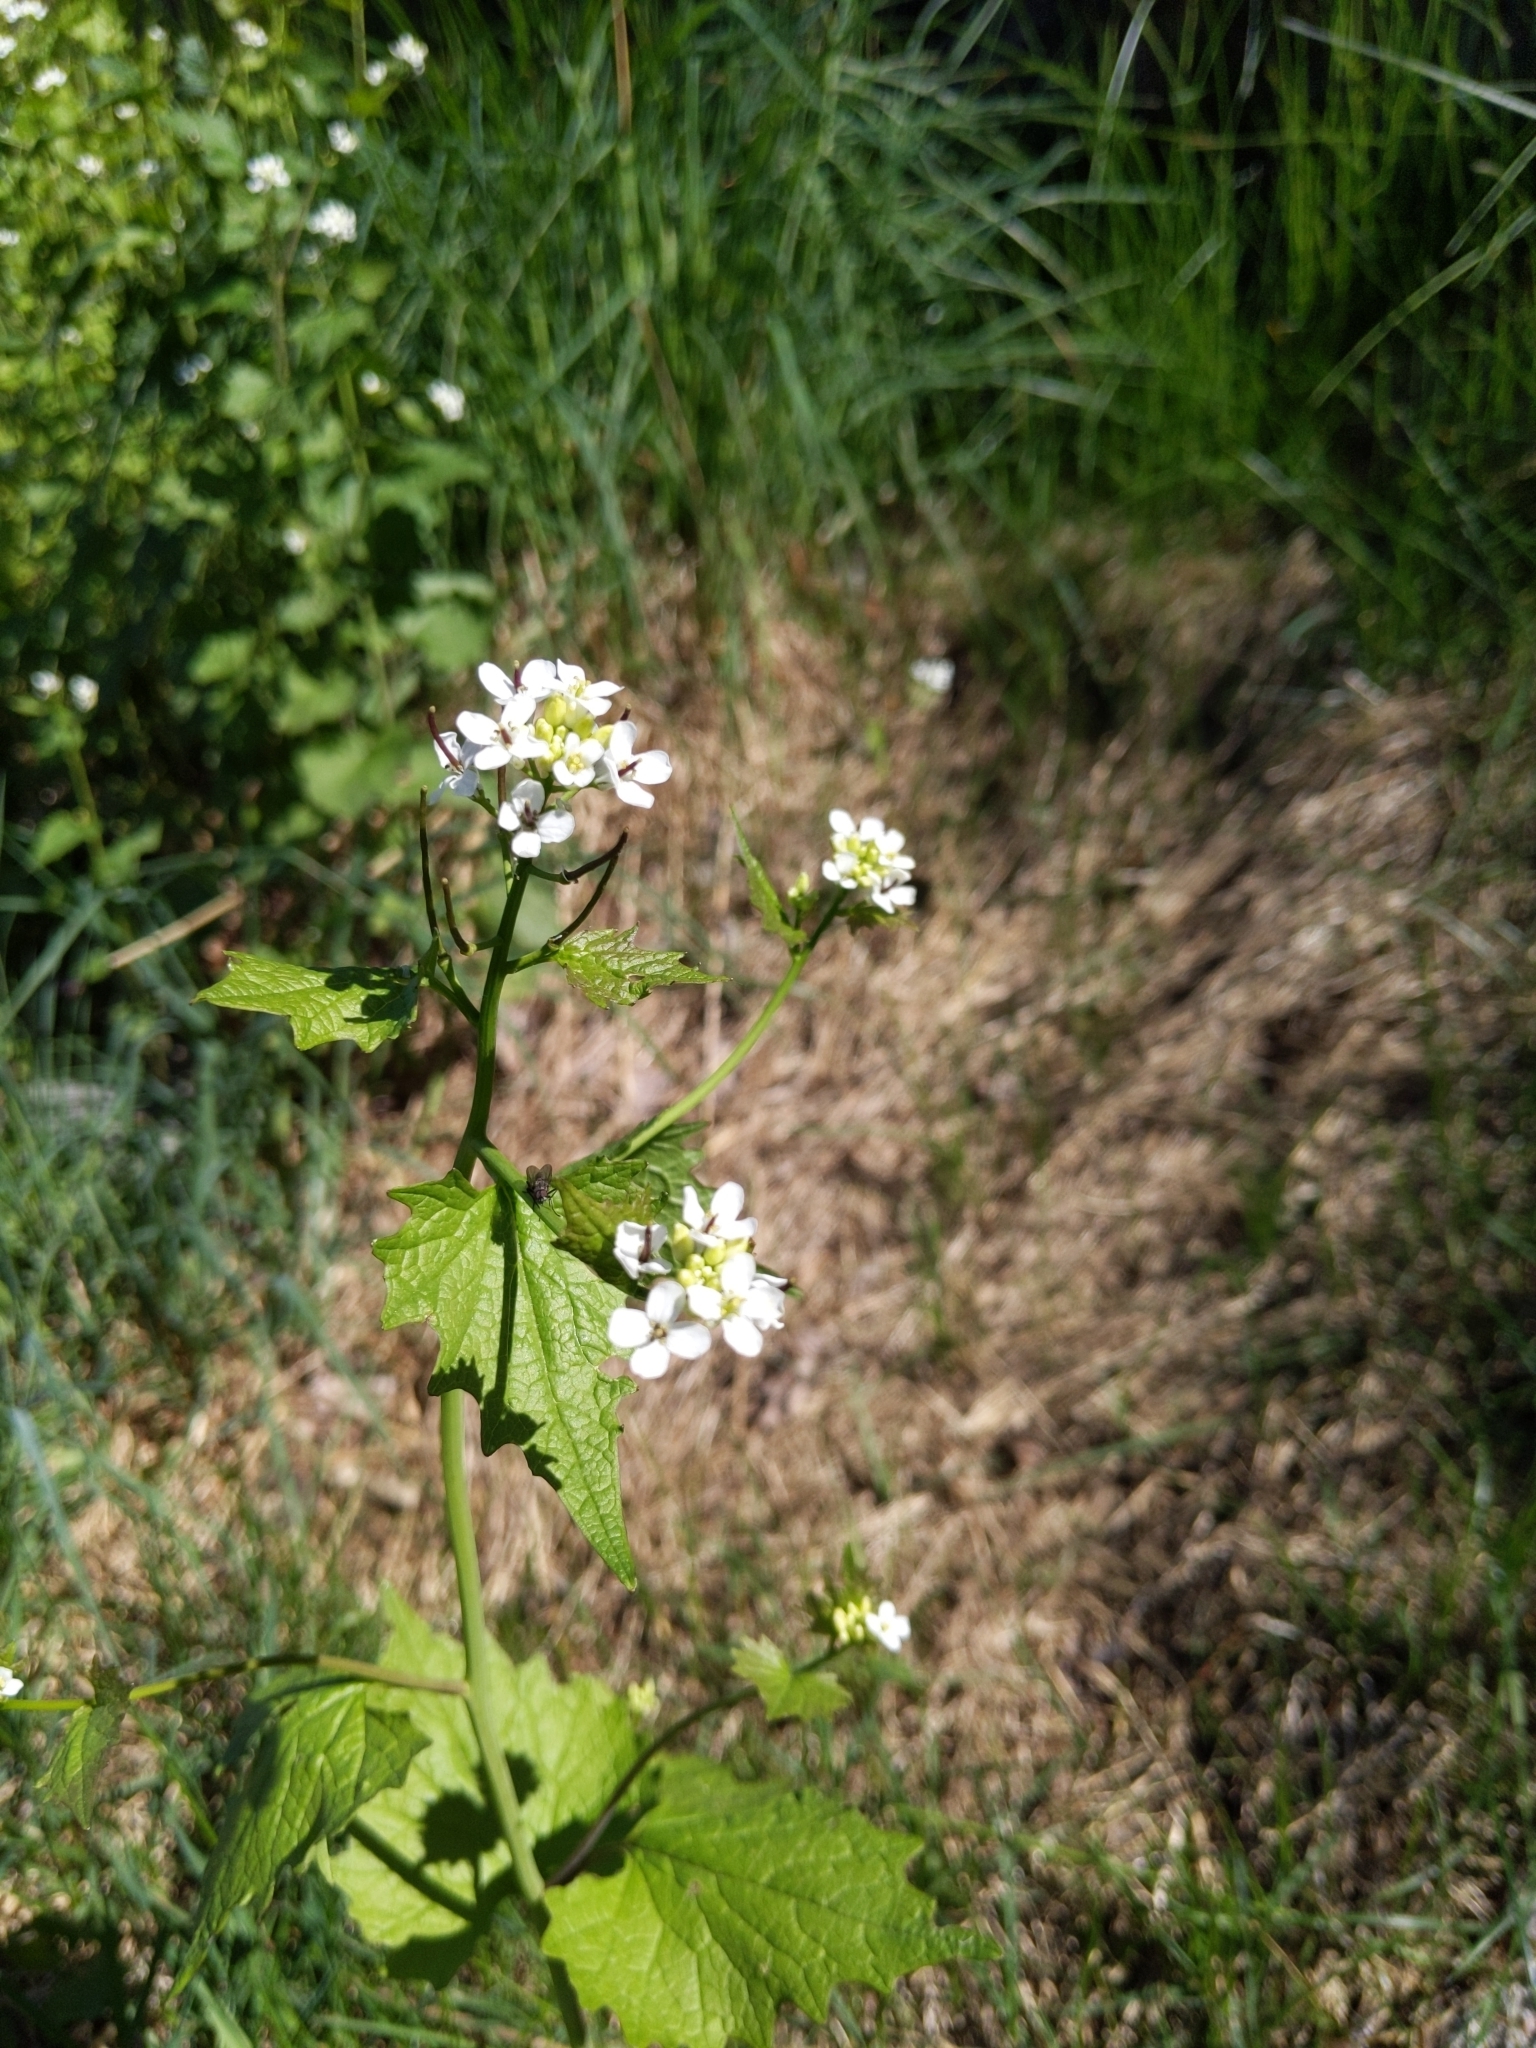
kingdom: Plantae
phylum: Tracheophyta
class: Magnoliopsida
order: Brassicales
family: Brassicaceae
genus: Alliaria
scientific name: Alliaria petiolata
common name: Garlic mustard
